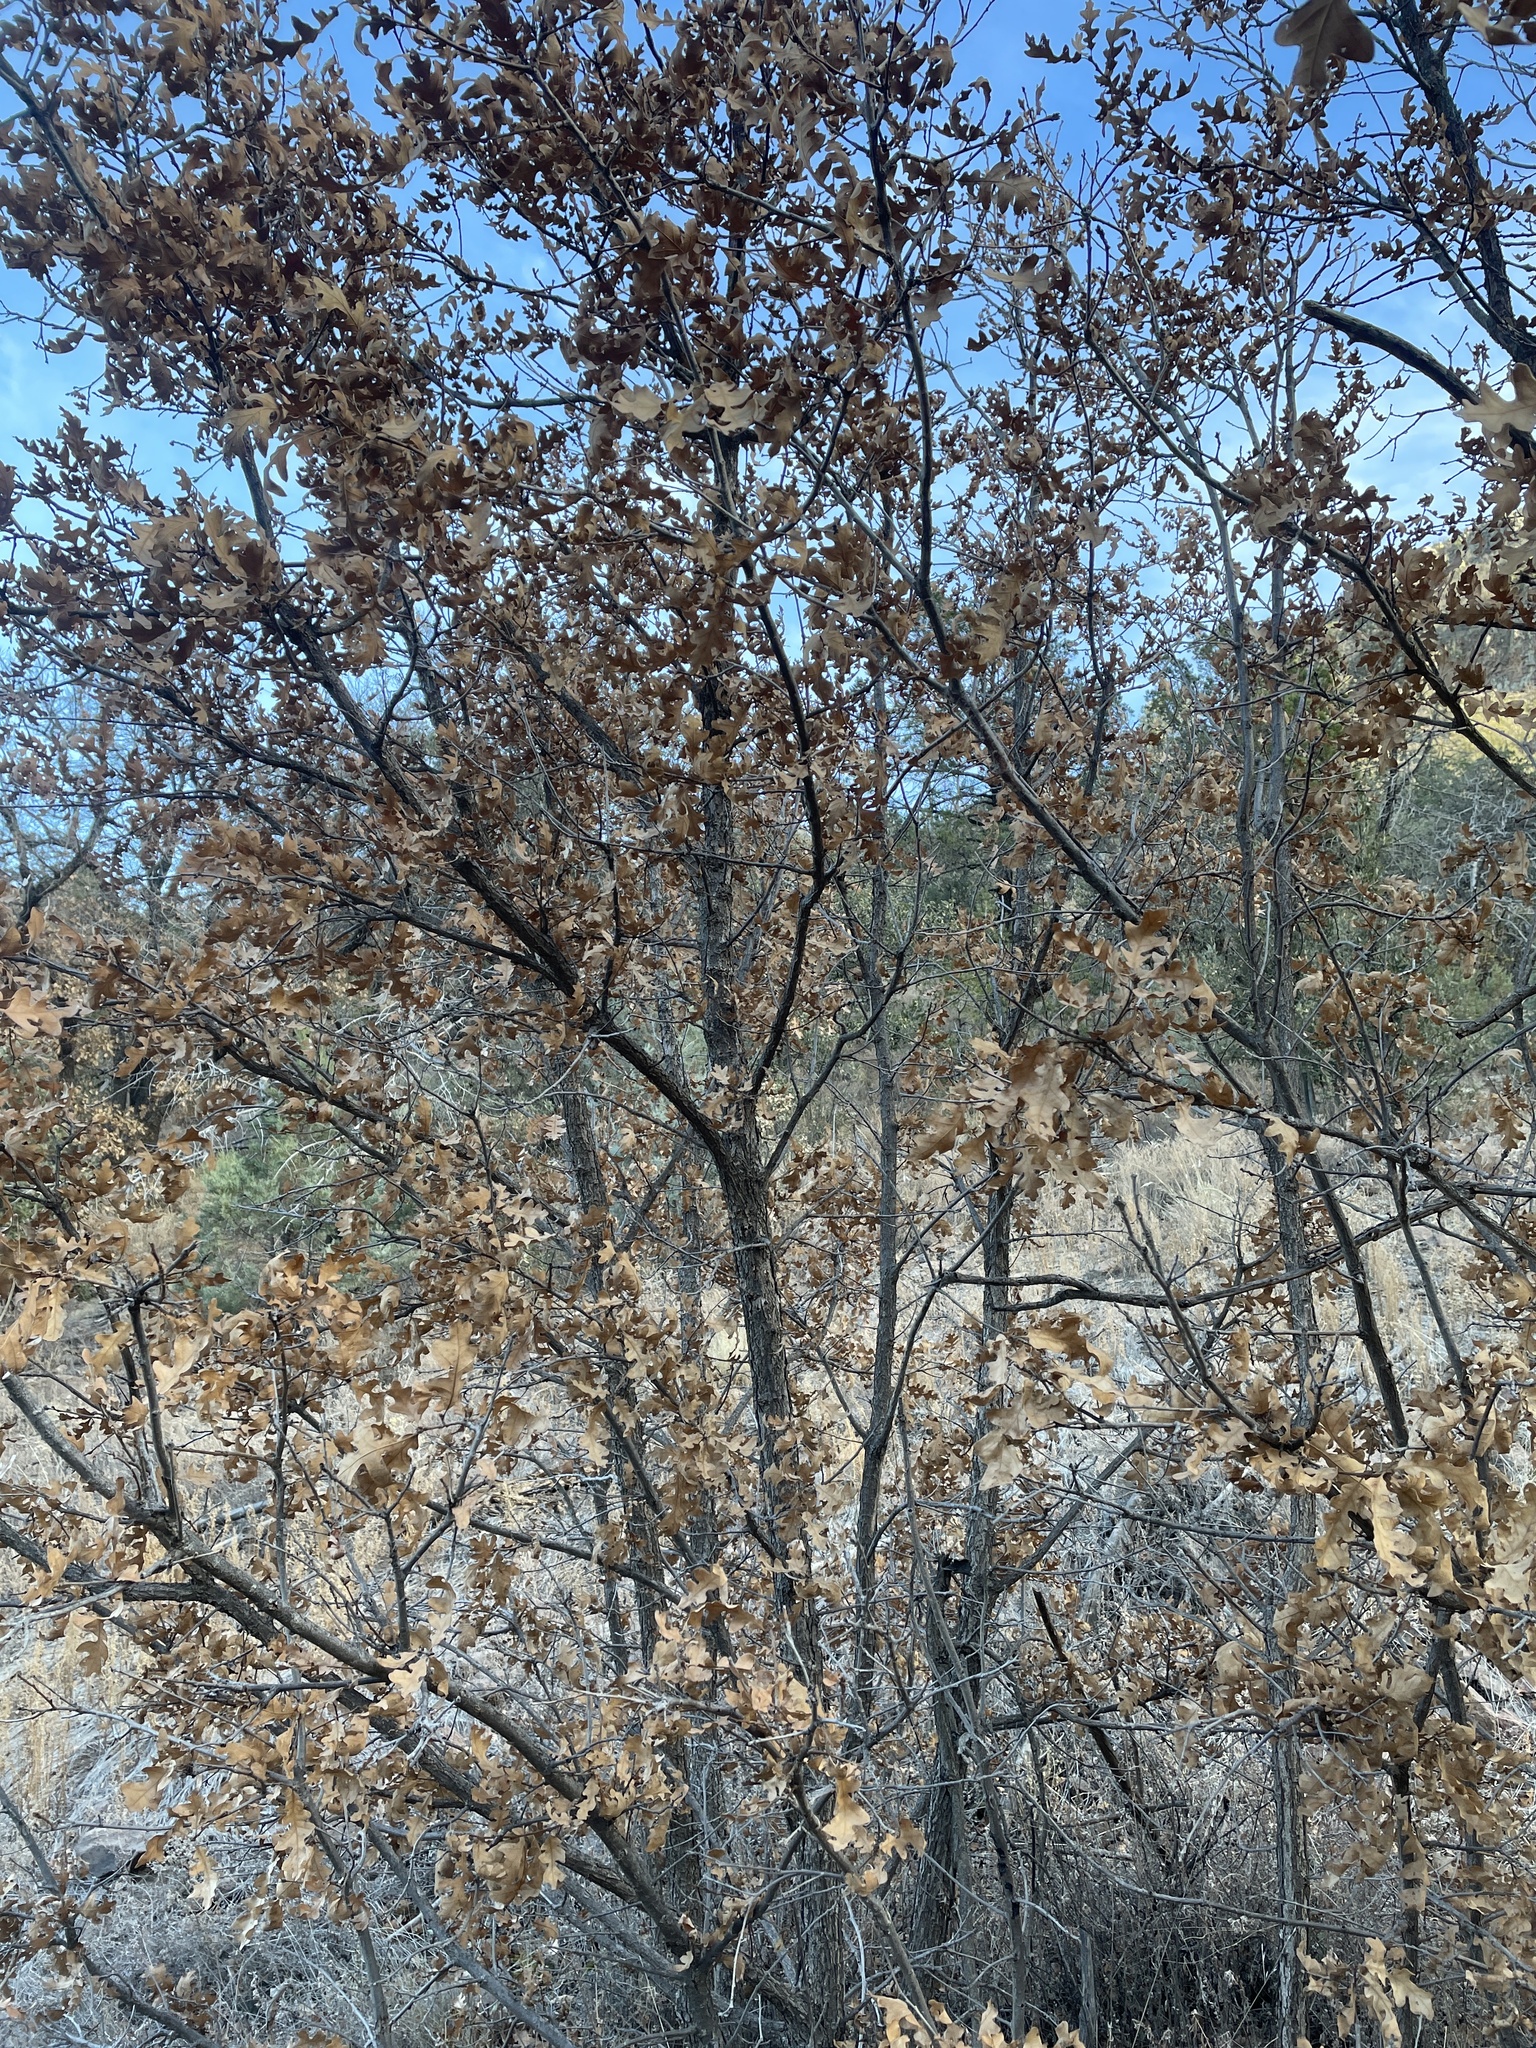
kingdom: Plantae
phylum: Tracheophyta
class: Magnoliopsida
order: Fagales
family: Fagaceae
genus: Quercus
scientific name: Quercus gambelii
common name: Gambel oak
